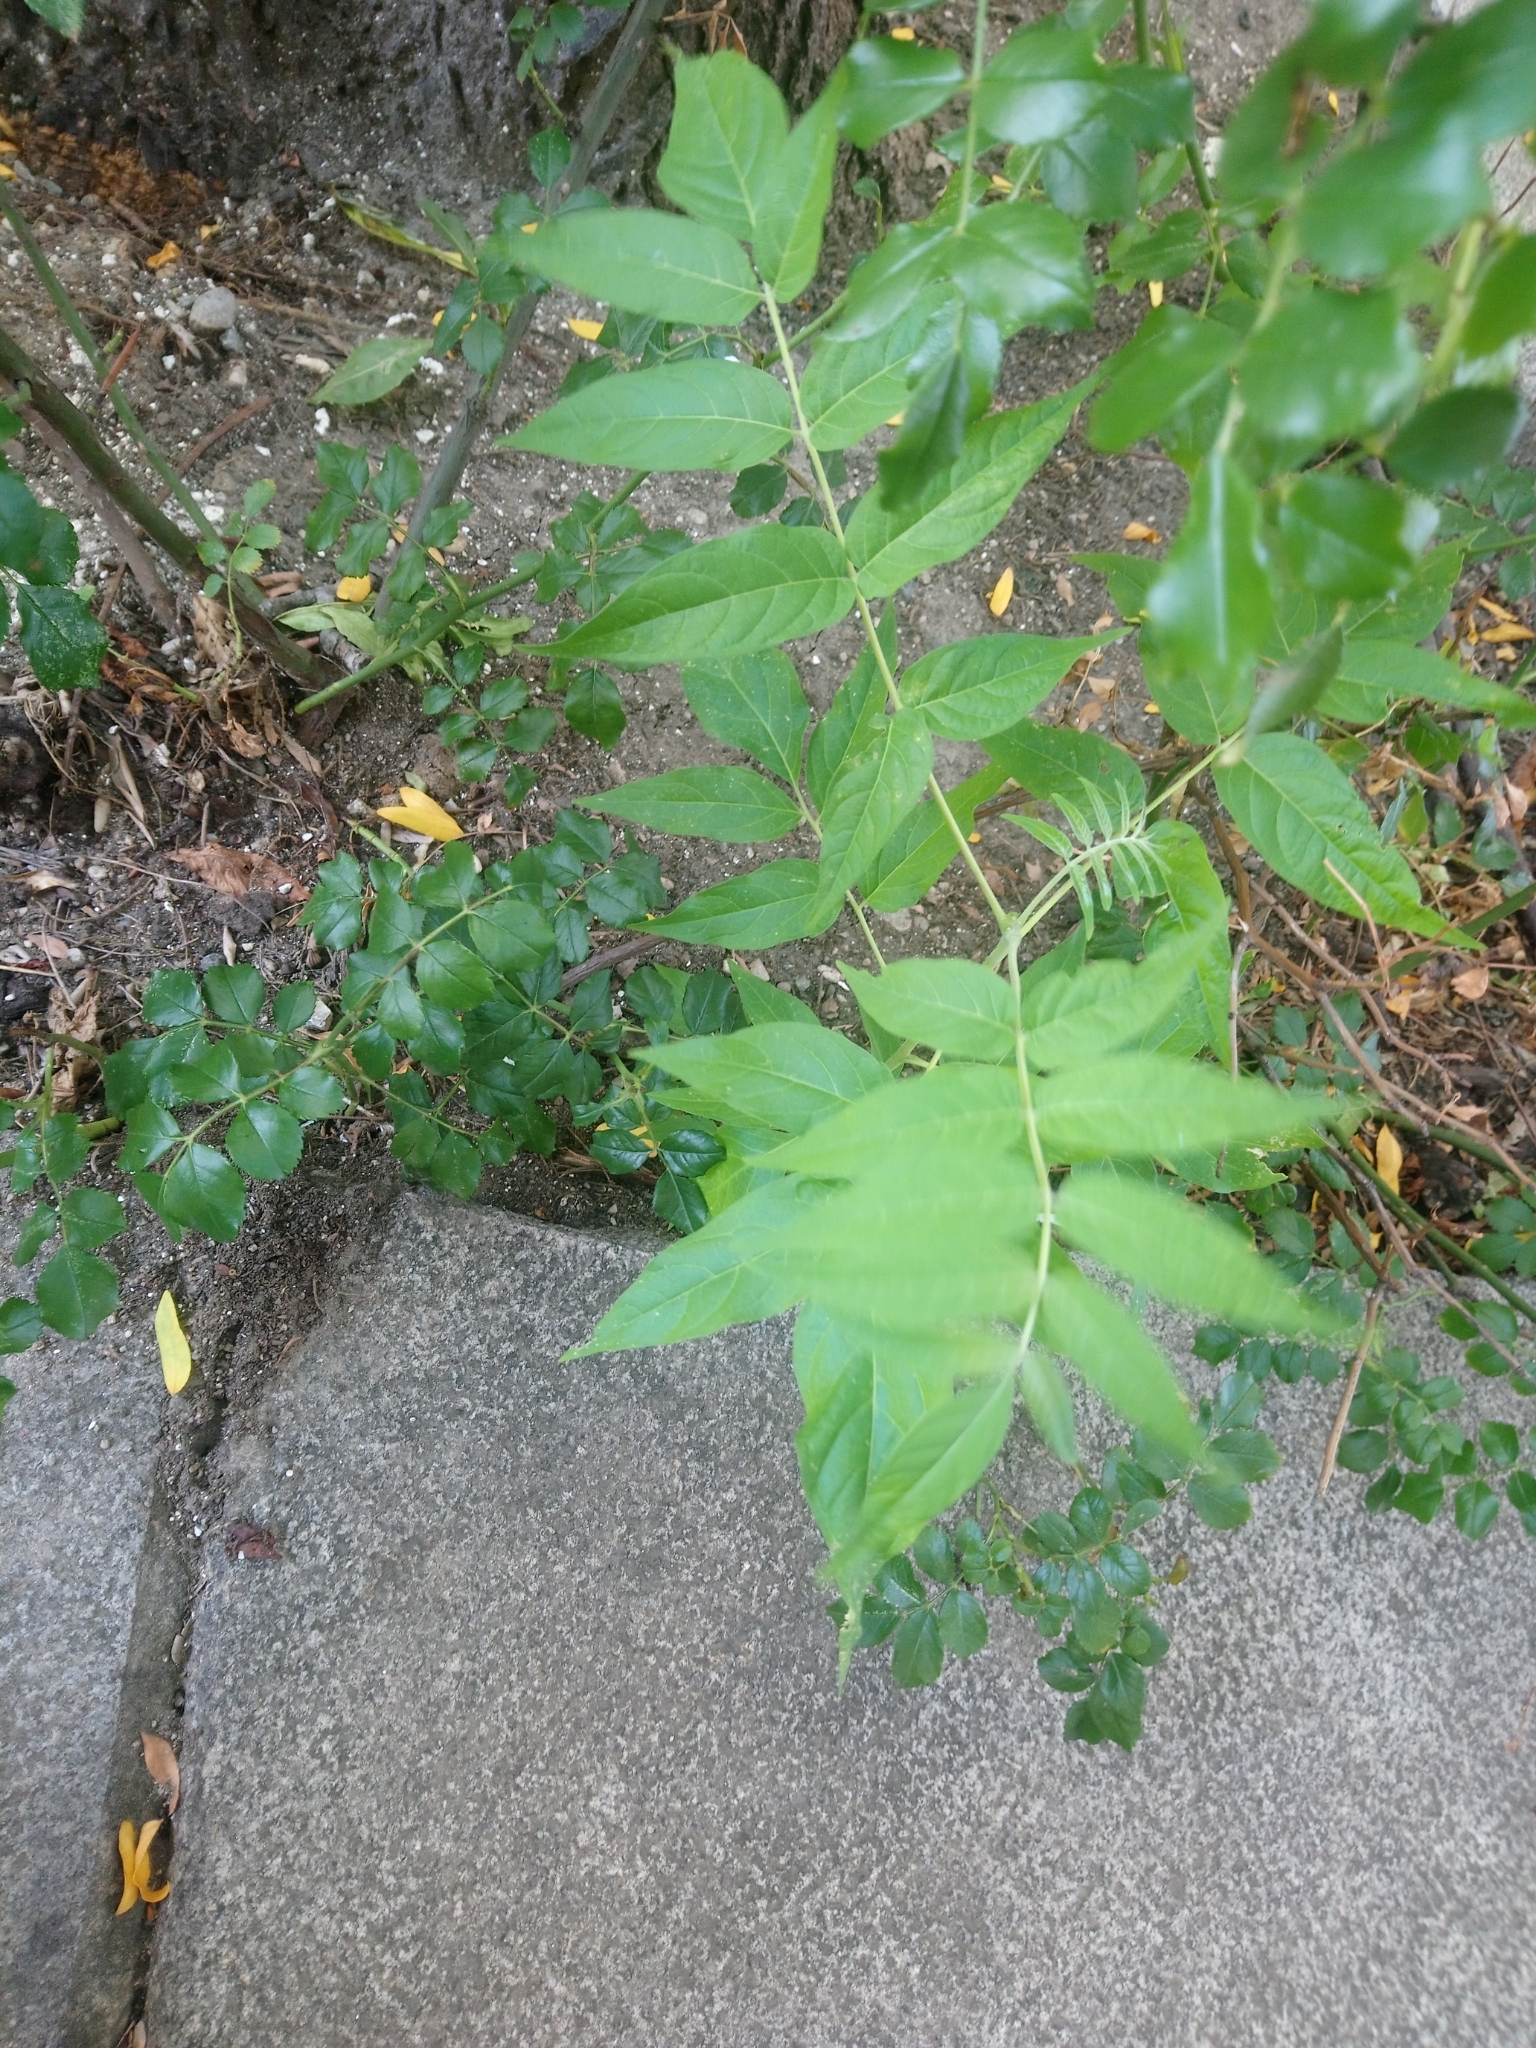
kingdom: Plantae
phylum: Tracheophyta
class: Magnoliopsida
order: Sapindales
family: Simaroubaceae
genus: Ailanthus
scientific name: Ailanthus altissima
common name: Tree-of-heaven
